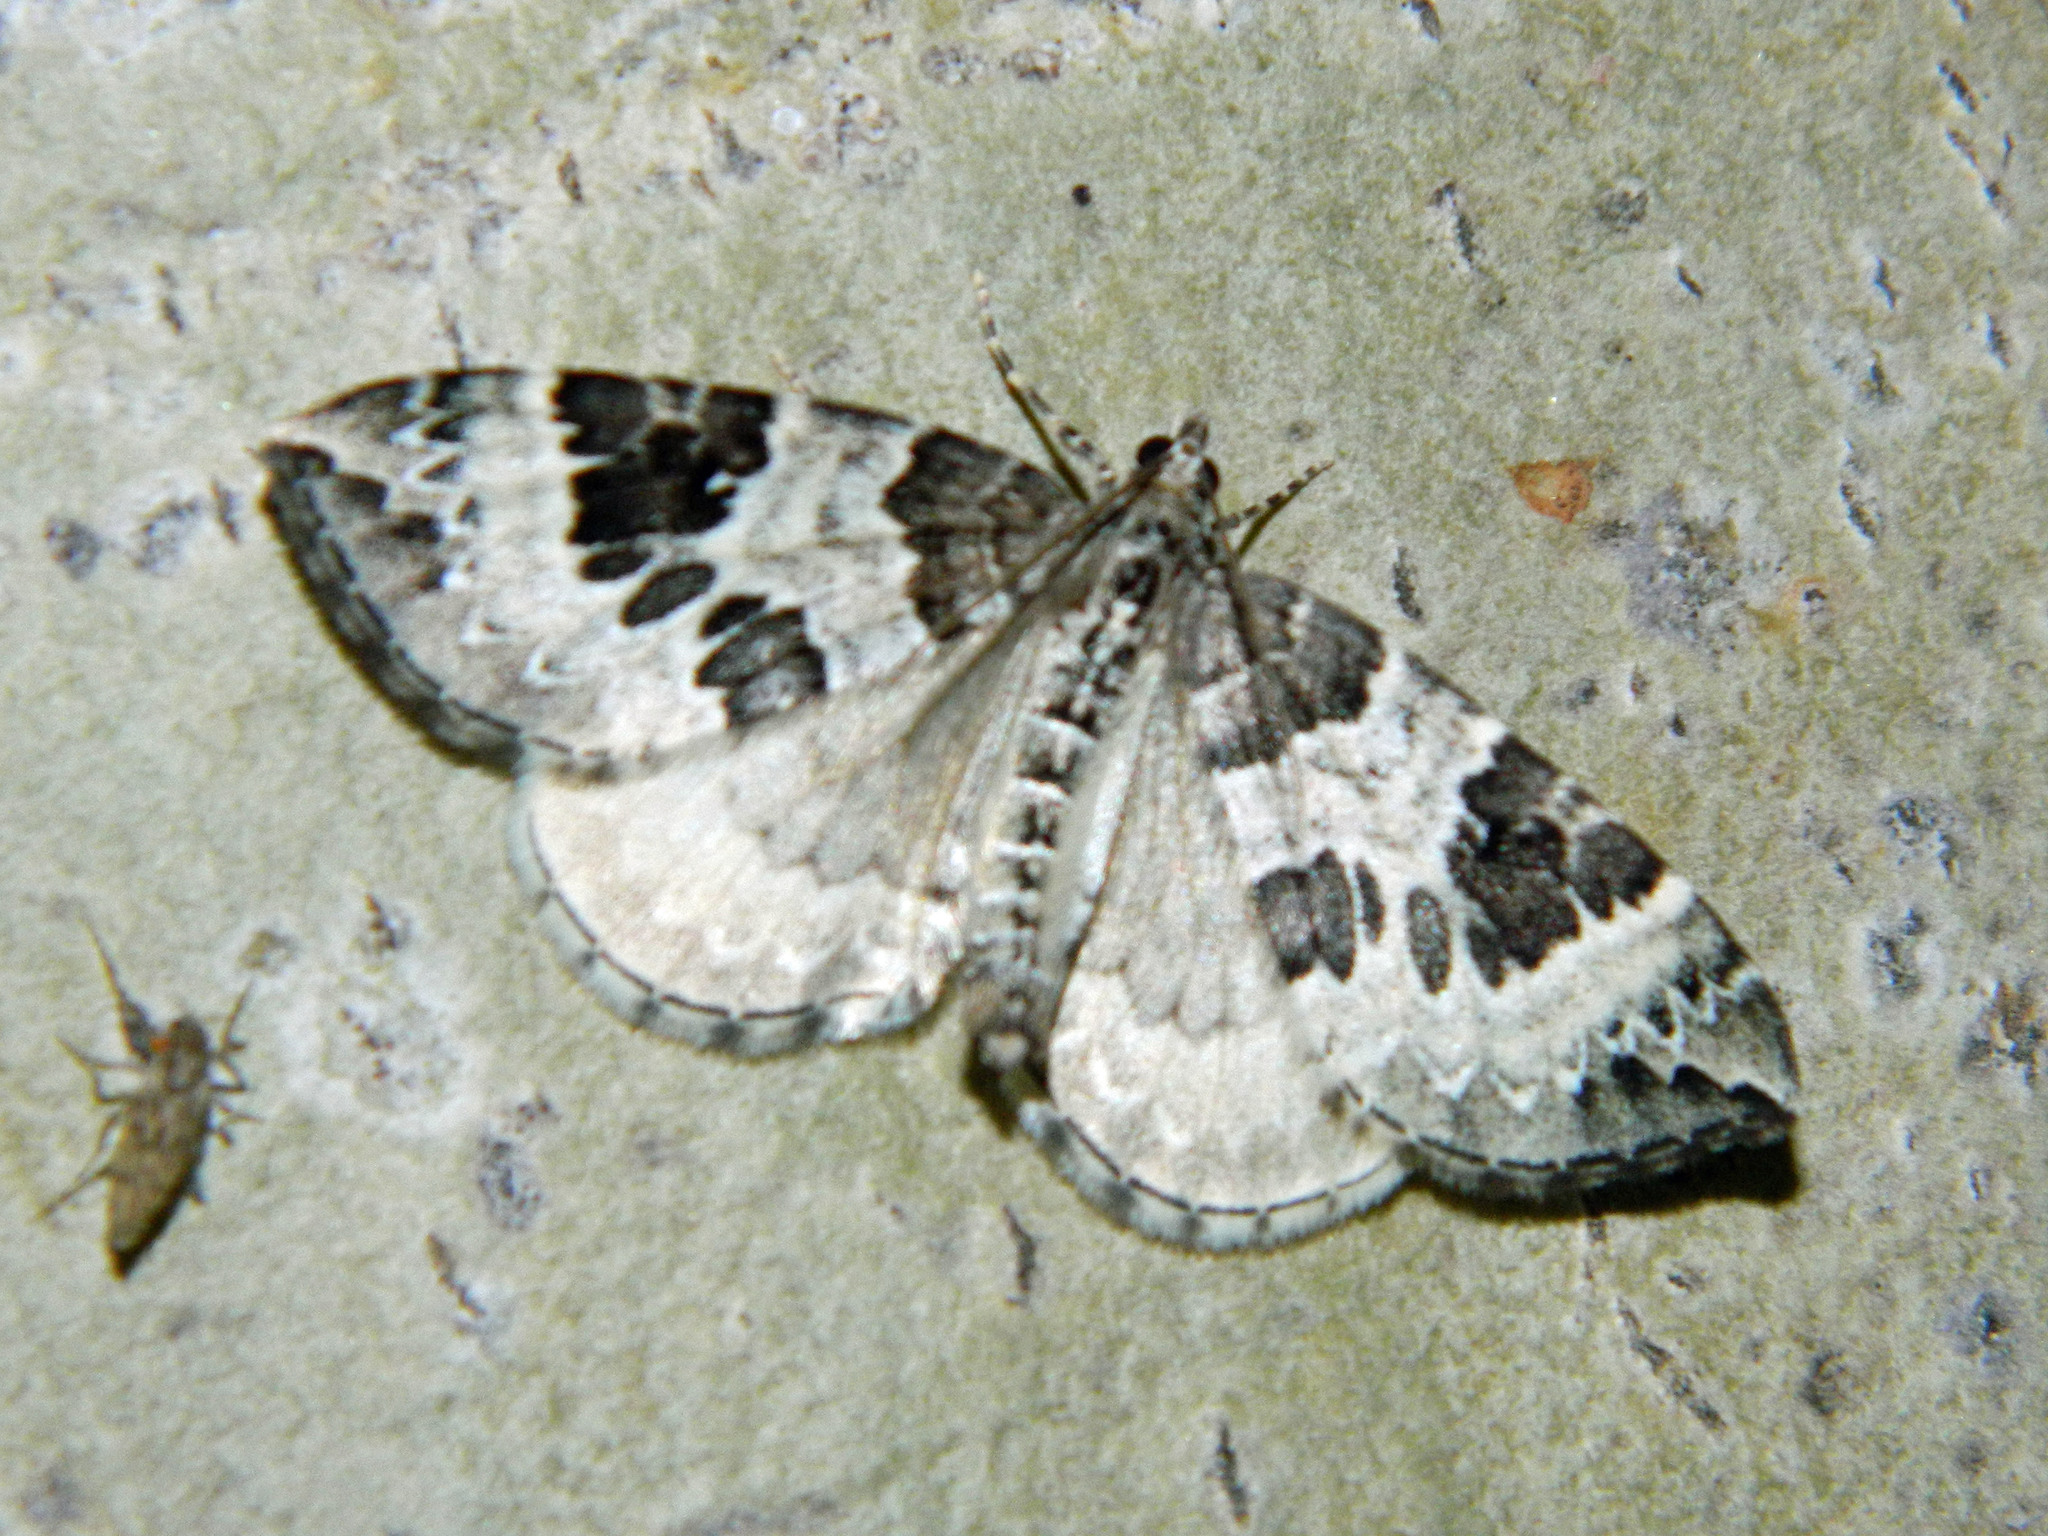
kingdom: Animalia
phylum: Arthropoda
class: Insecta
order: Lepidoptera
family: Geometridae
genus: Eulithis
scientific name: Eulithis explanata
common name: White eulithis
